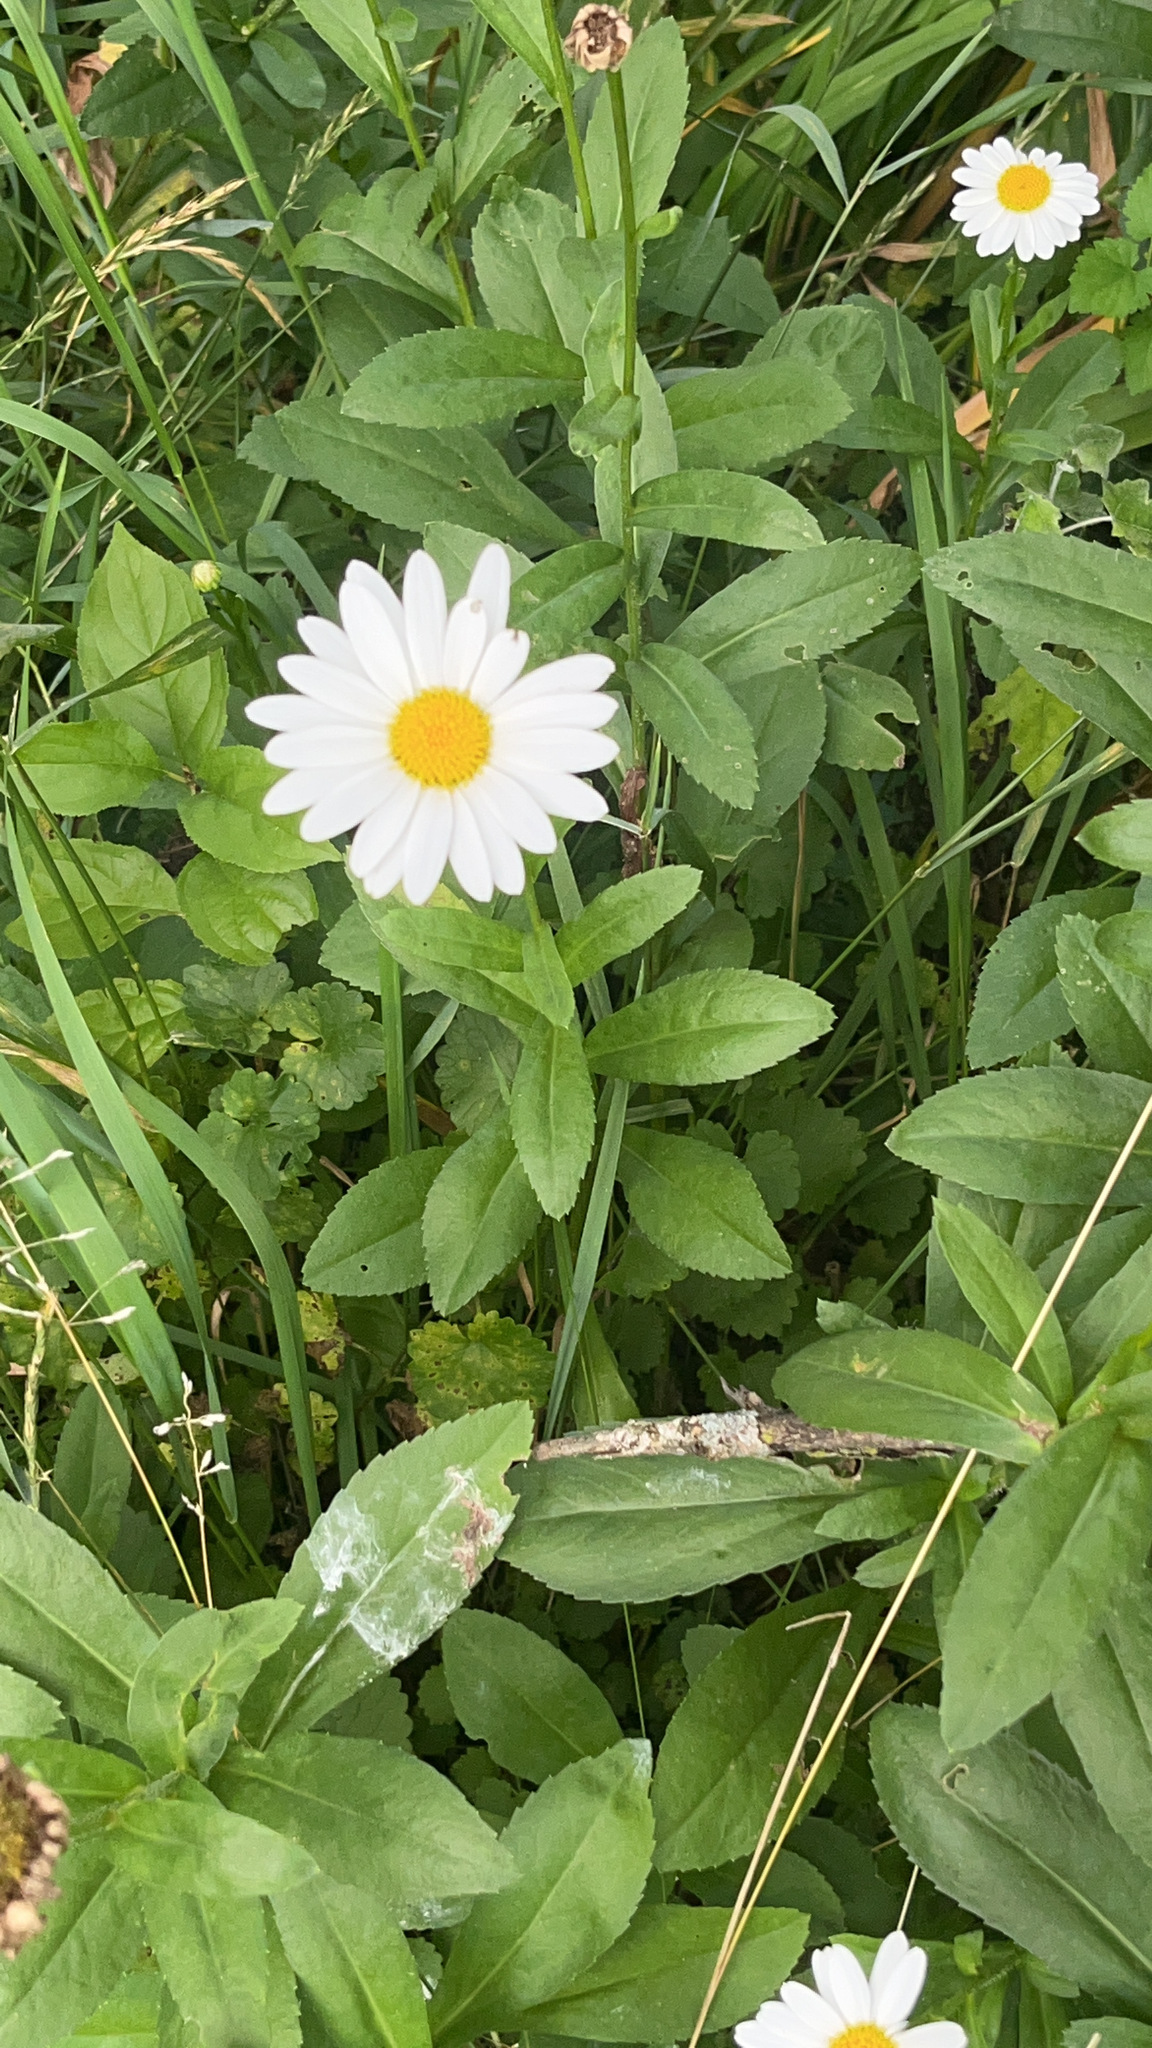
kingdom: Plantae
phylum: Tracheophyta
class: Magnoliopsida
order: Asterales
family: Asteraceae
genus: Leucanthemum
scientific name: Leucanthemum vulgare
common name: Oxeye daisy
